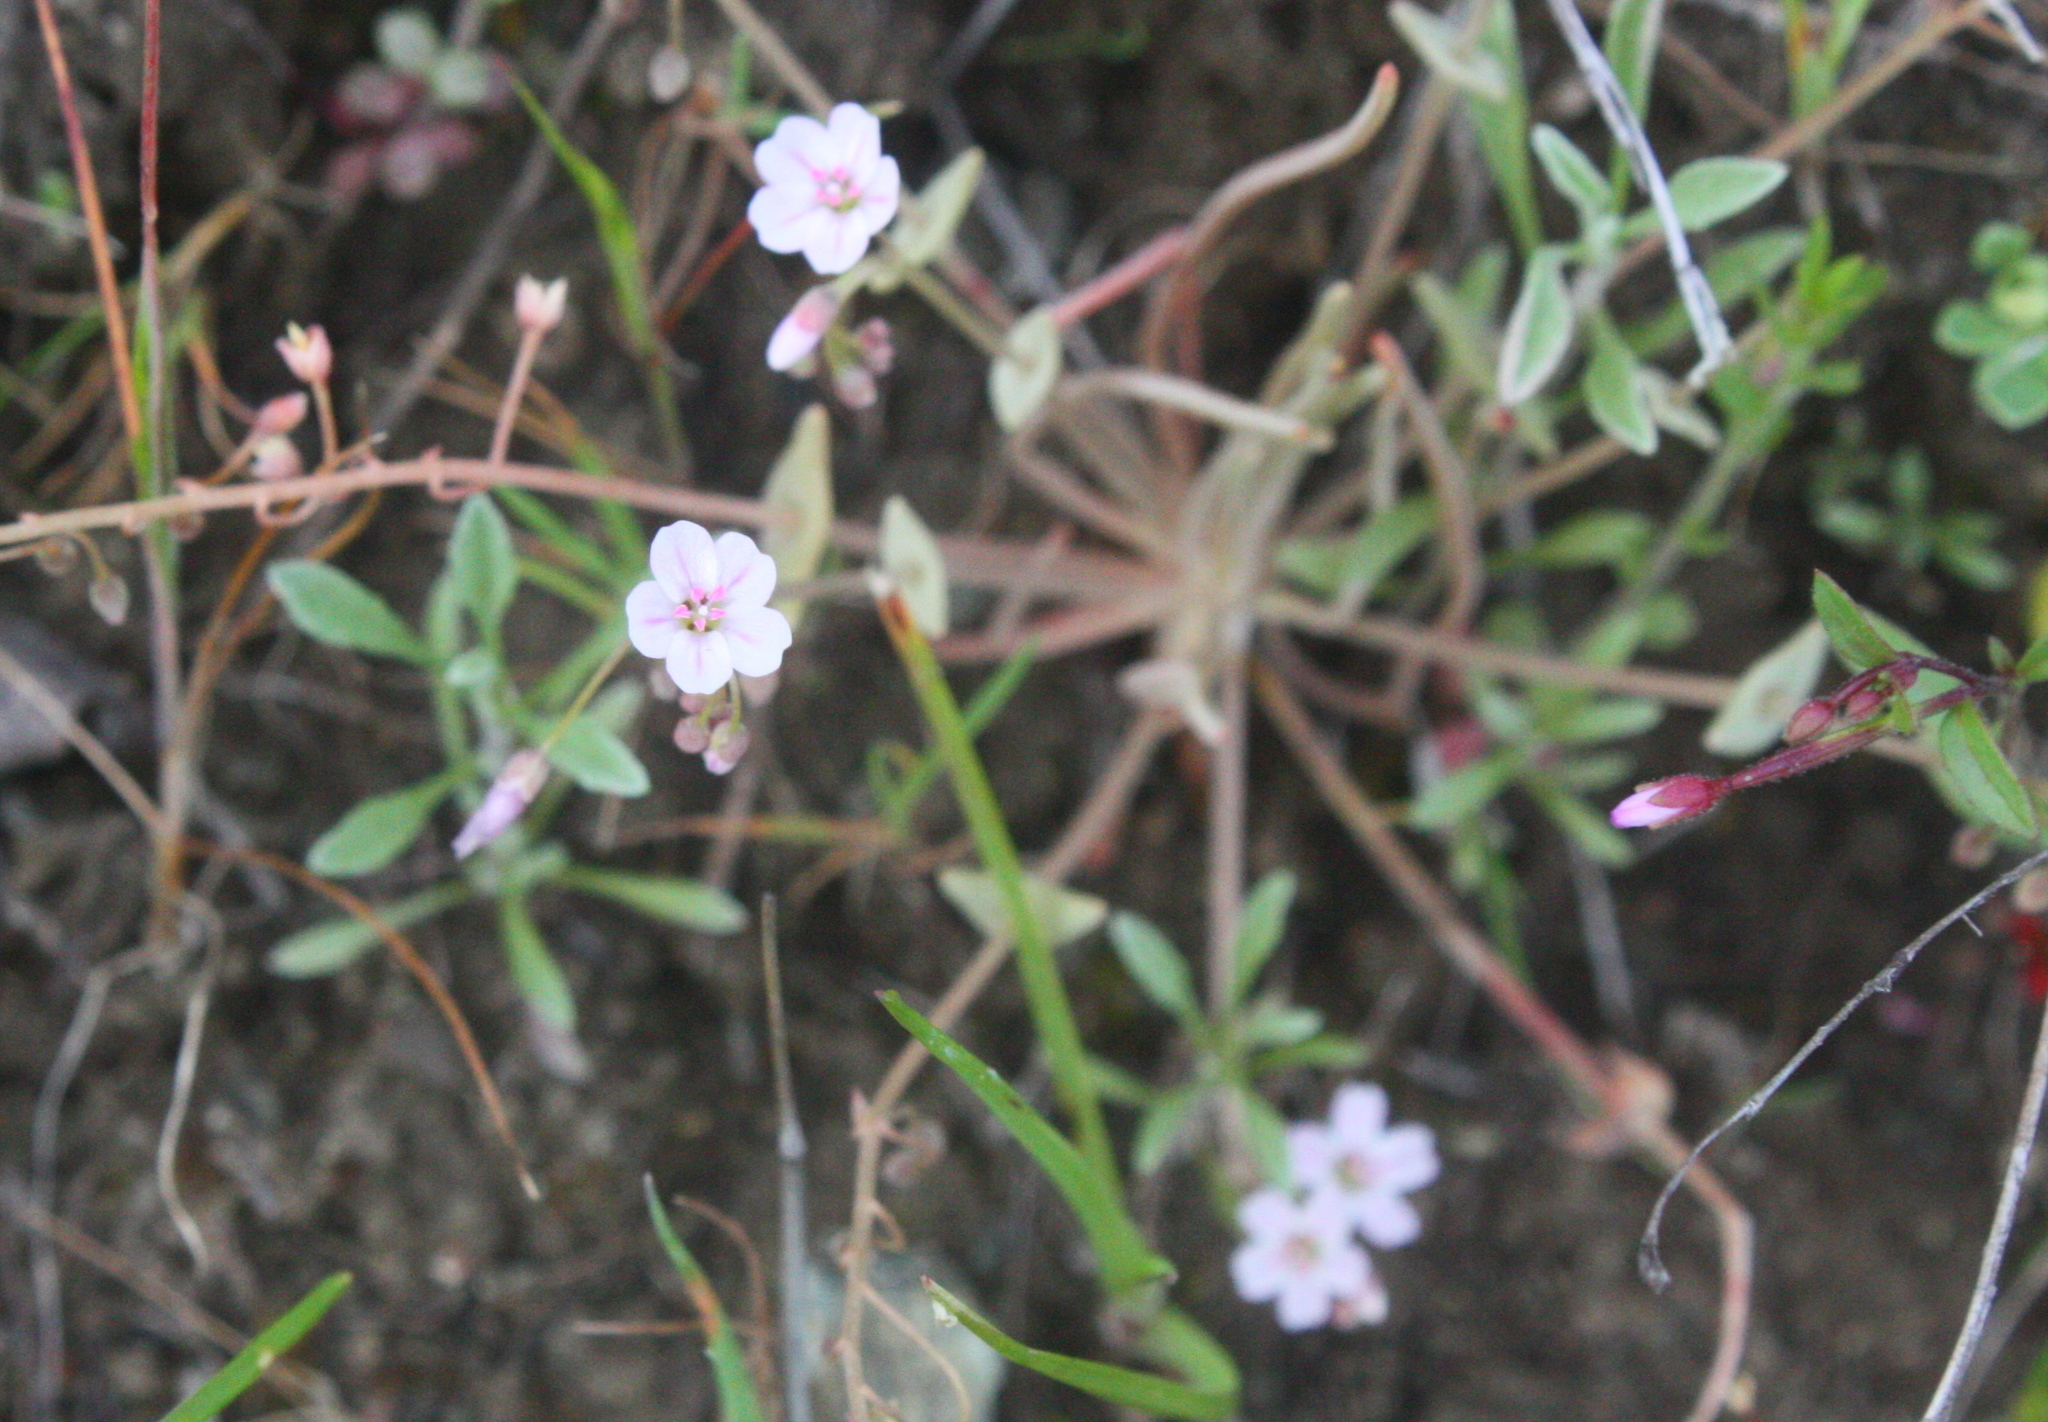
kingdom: Plantae
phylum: Tracheophyta
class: Magnoliopsida
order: Caryophyllales
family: Montiaceae
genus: Claytonia
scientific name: Claytonia gypsophiloides
